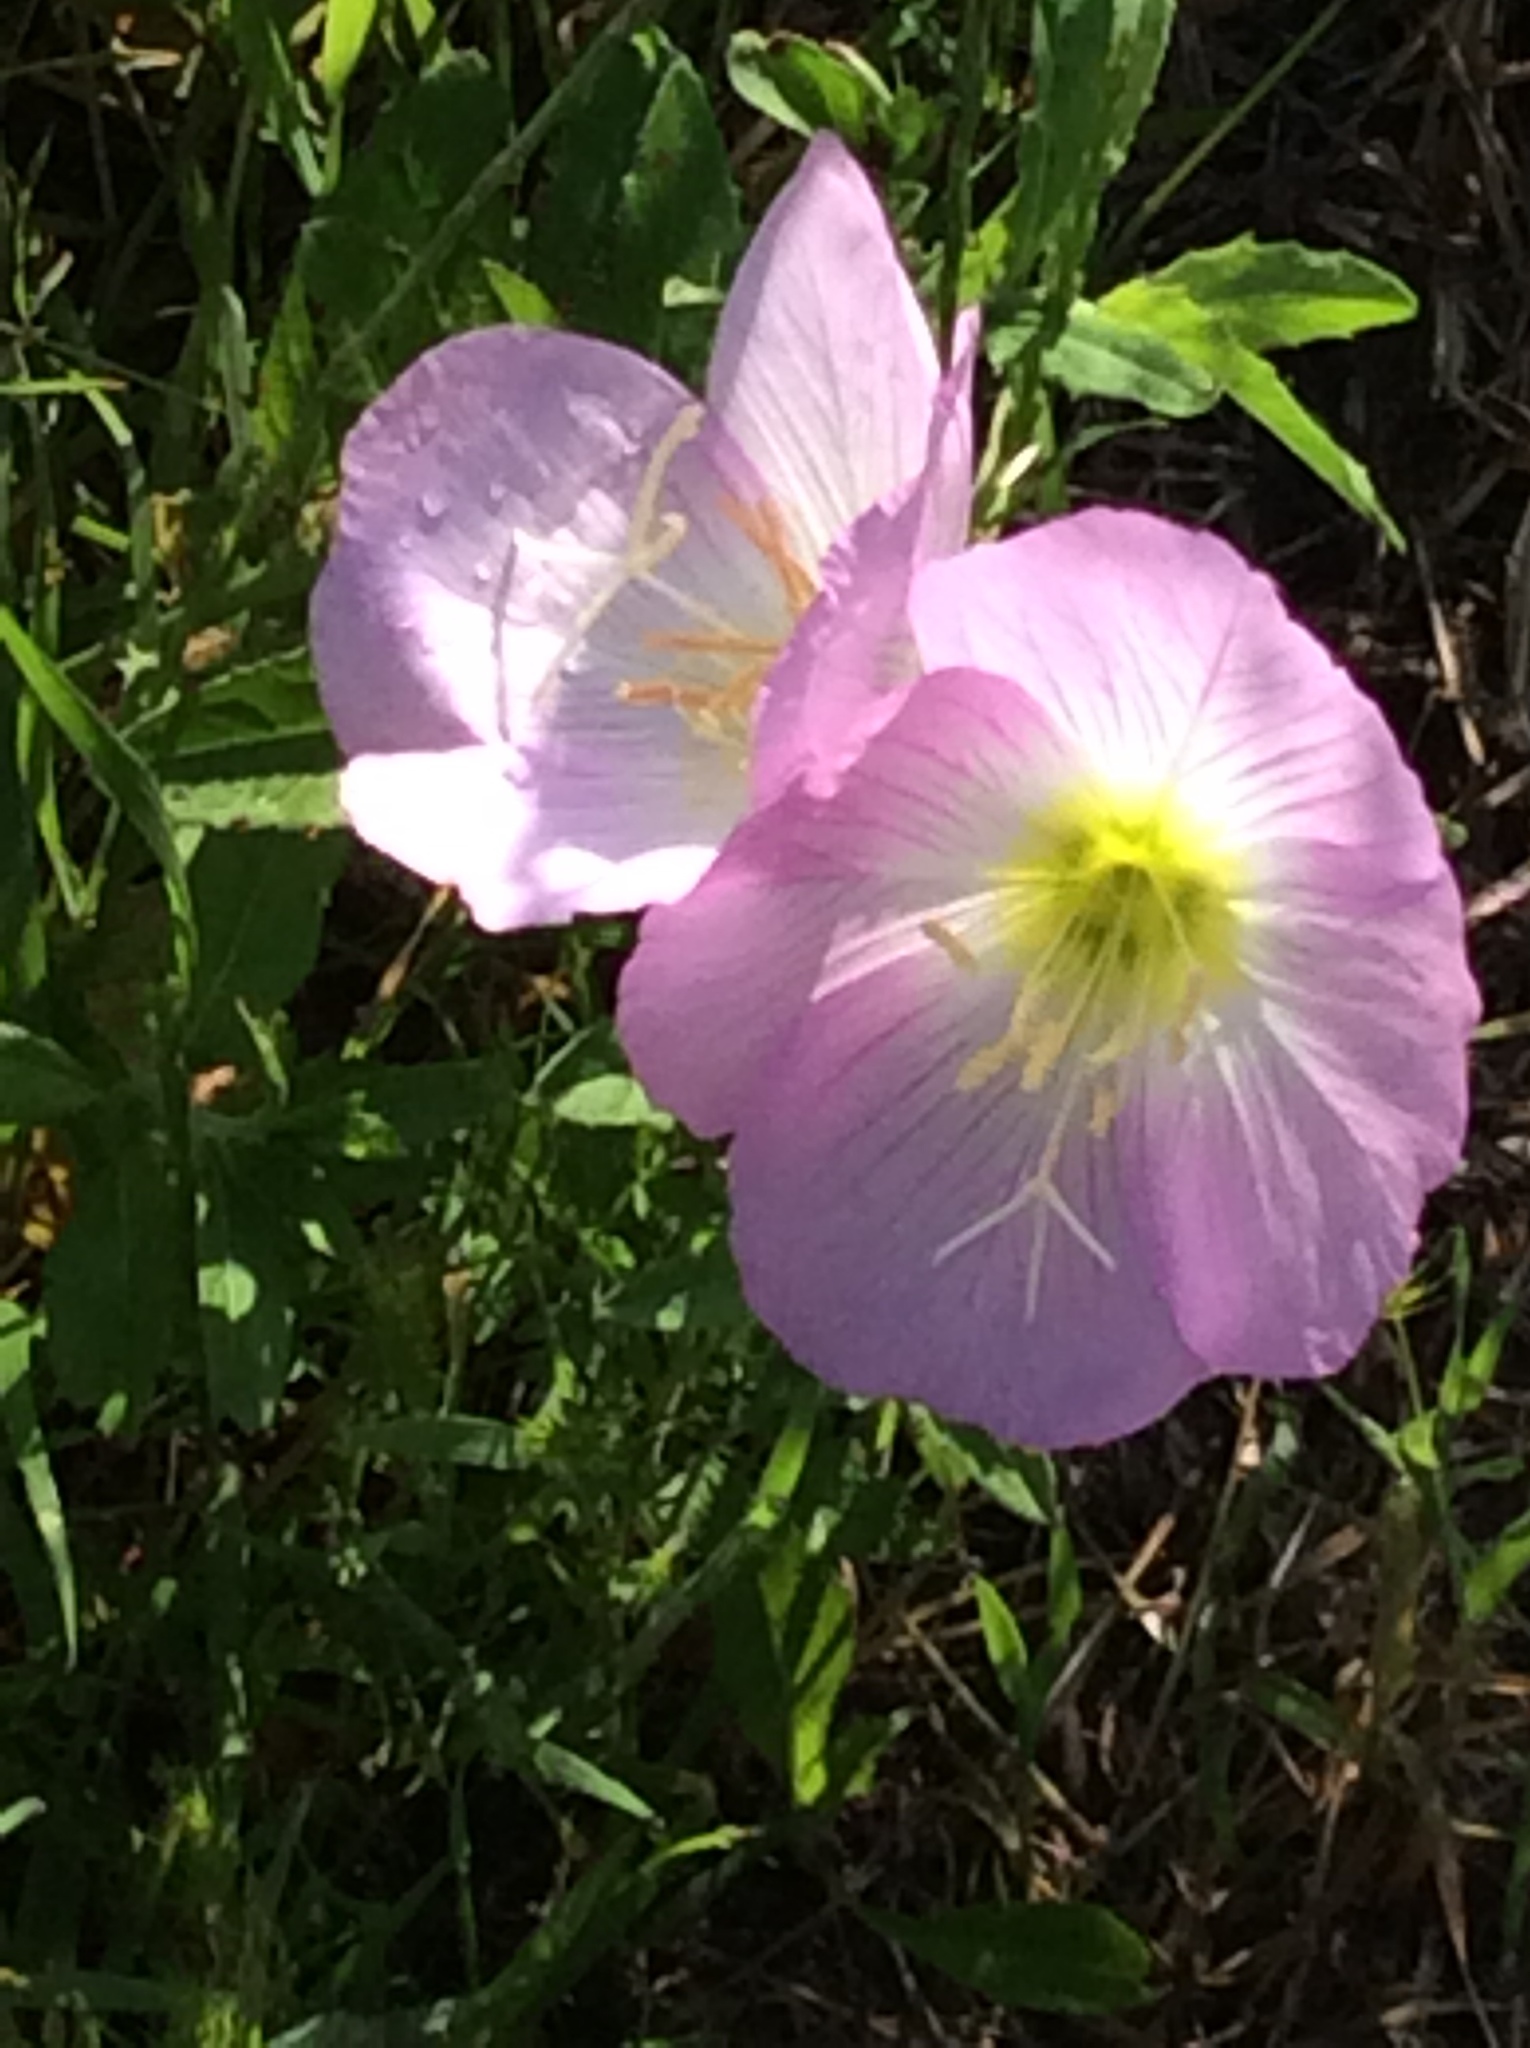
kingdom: Plantae
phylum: Tracheophyta
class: Magnoliopsida
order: Myrtales
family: Onagraceae
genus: Oenothera
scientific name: Oenothera speciosa
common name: White evening-primrose
